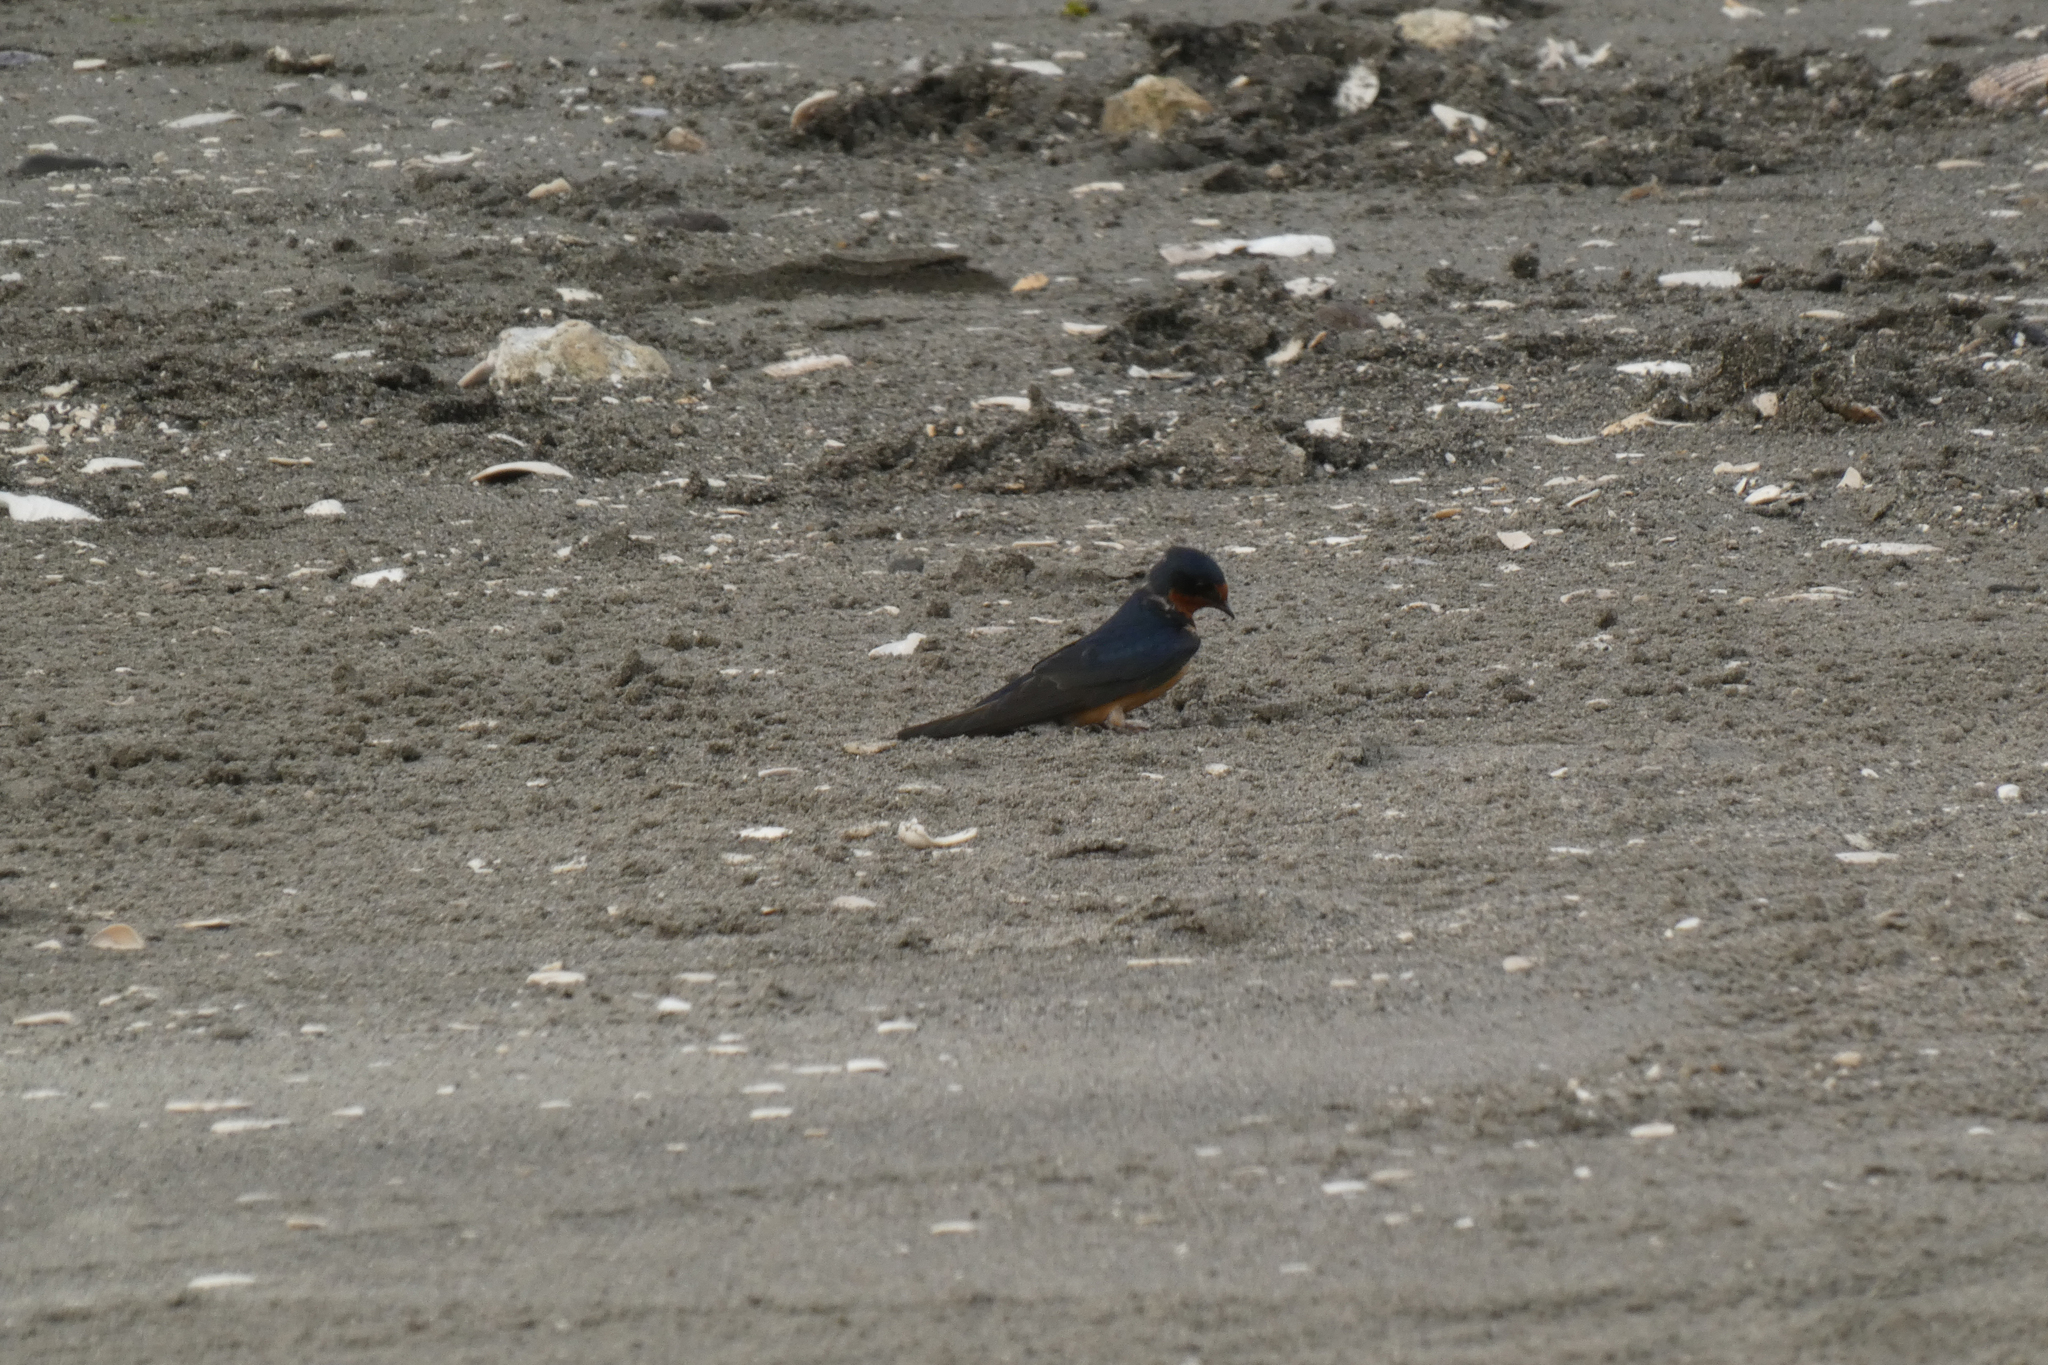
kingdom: Animalia
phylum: Chordata
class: Aves
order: Passeriformes
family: Hirundinidae
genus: Hirundo
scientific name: Hirundo rustica
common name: Barn swallow
